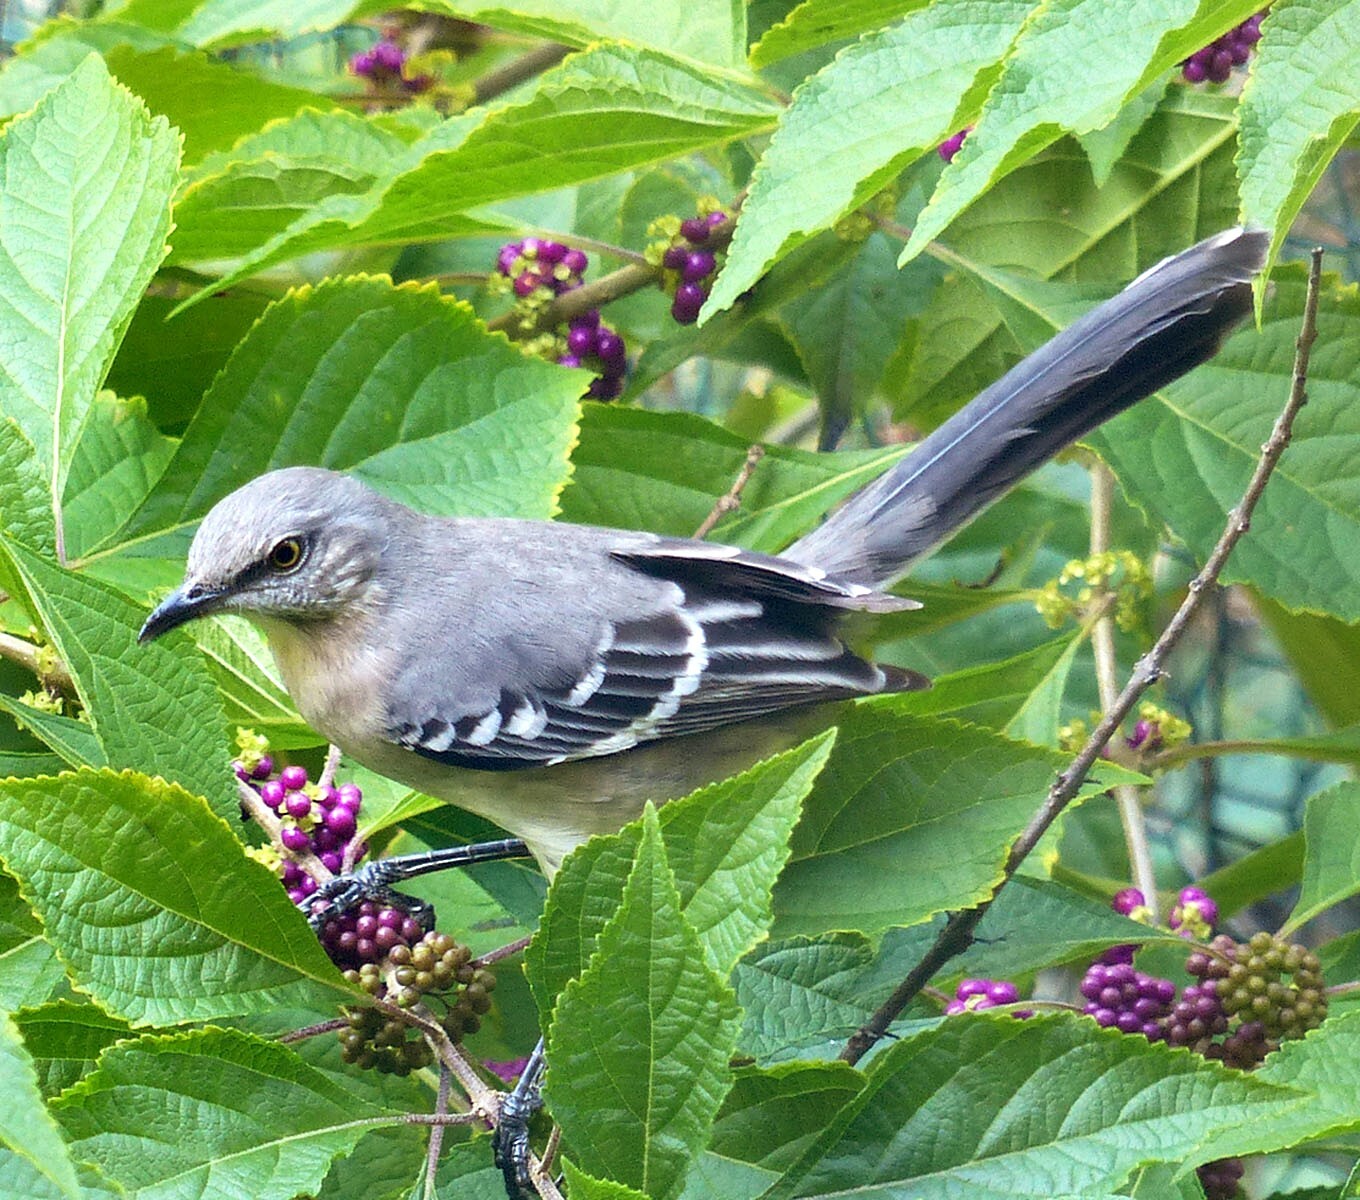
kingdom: Animalia
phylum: Chordata
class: Aves
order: Passeriformes
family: Mimidae
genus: Mimus
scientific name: Mimus polyglottos
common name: Northern mockingbird
